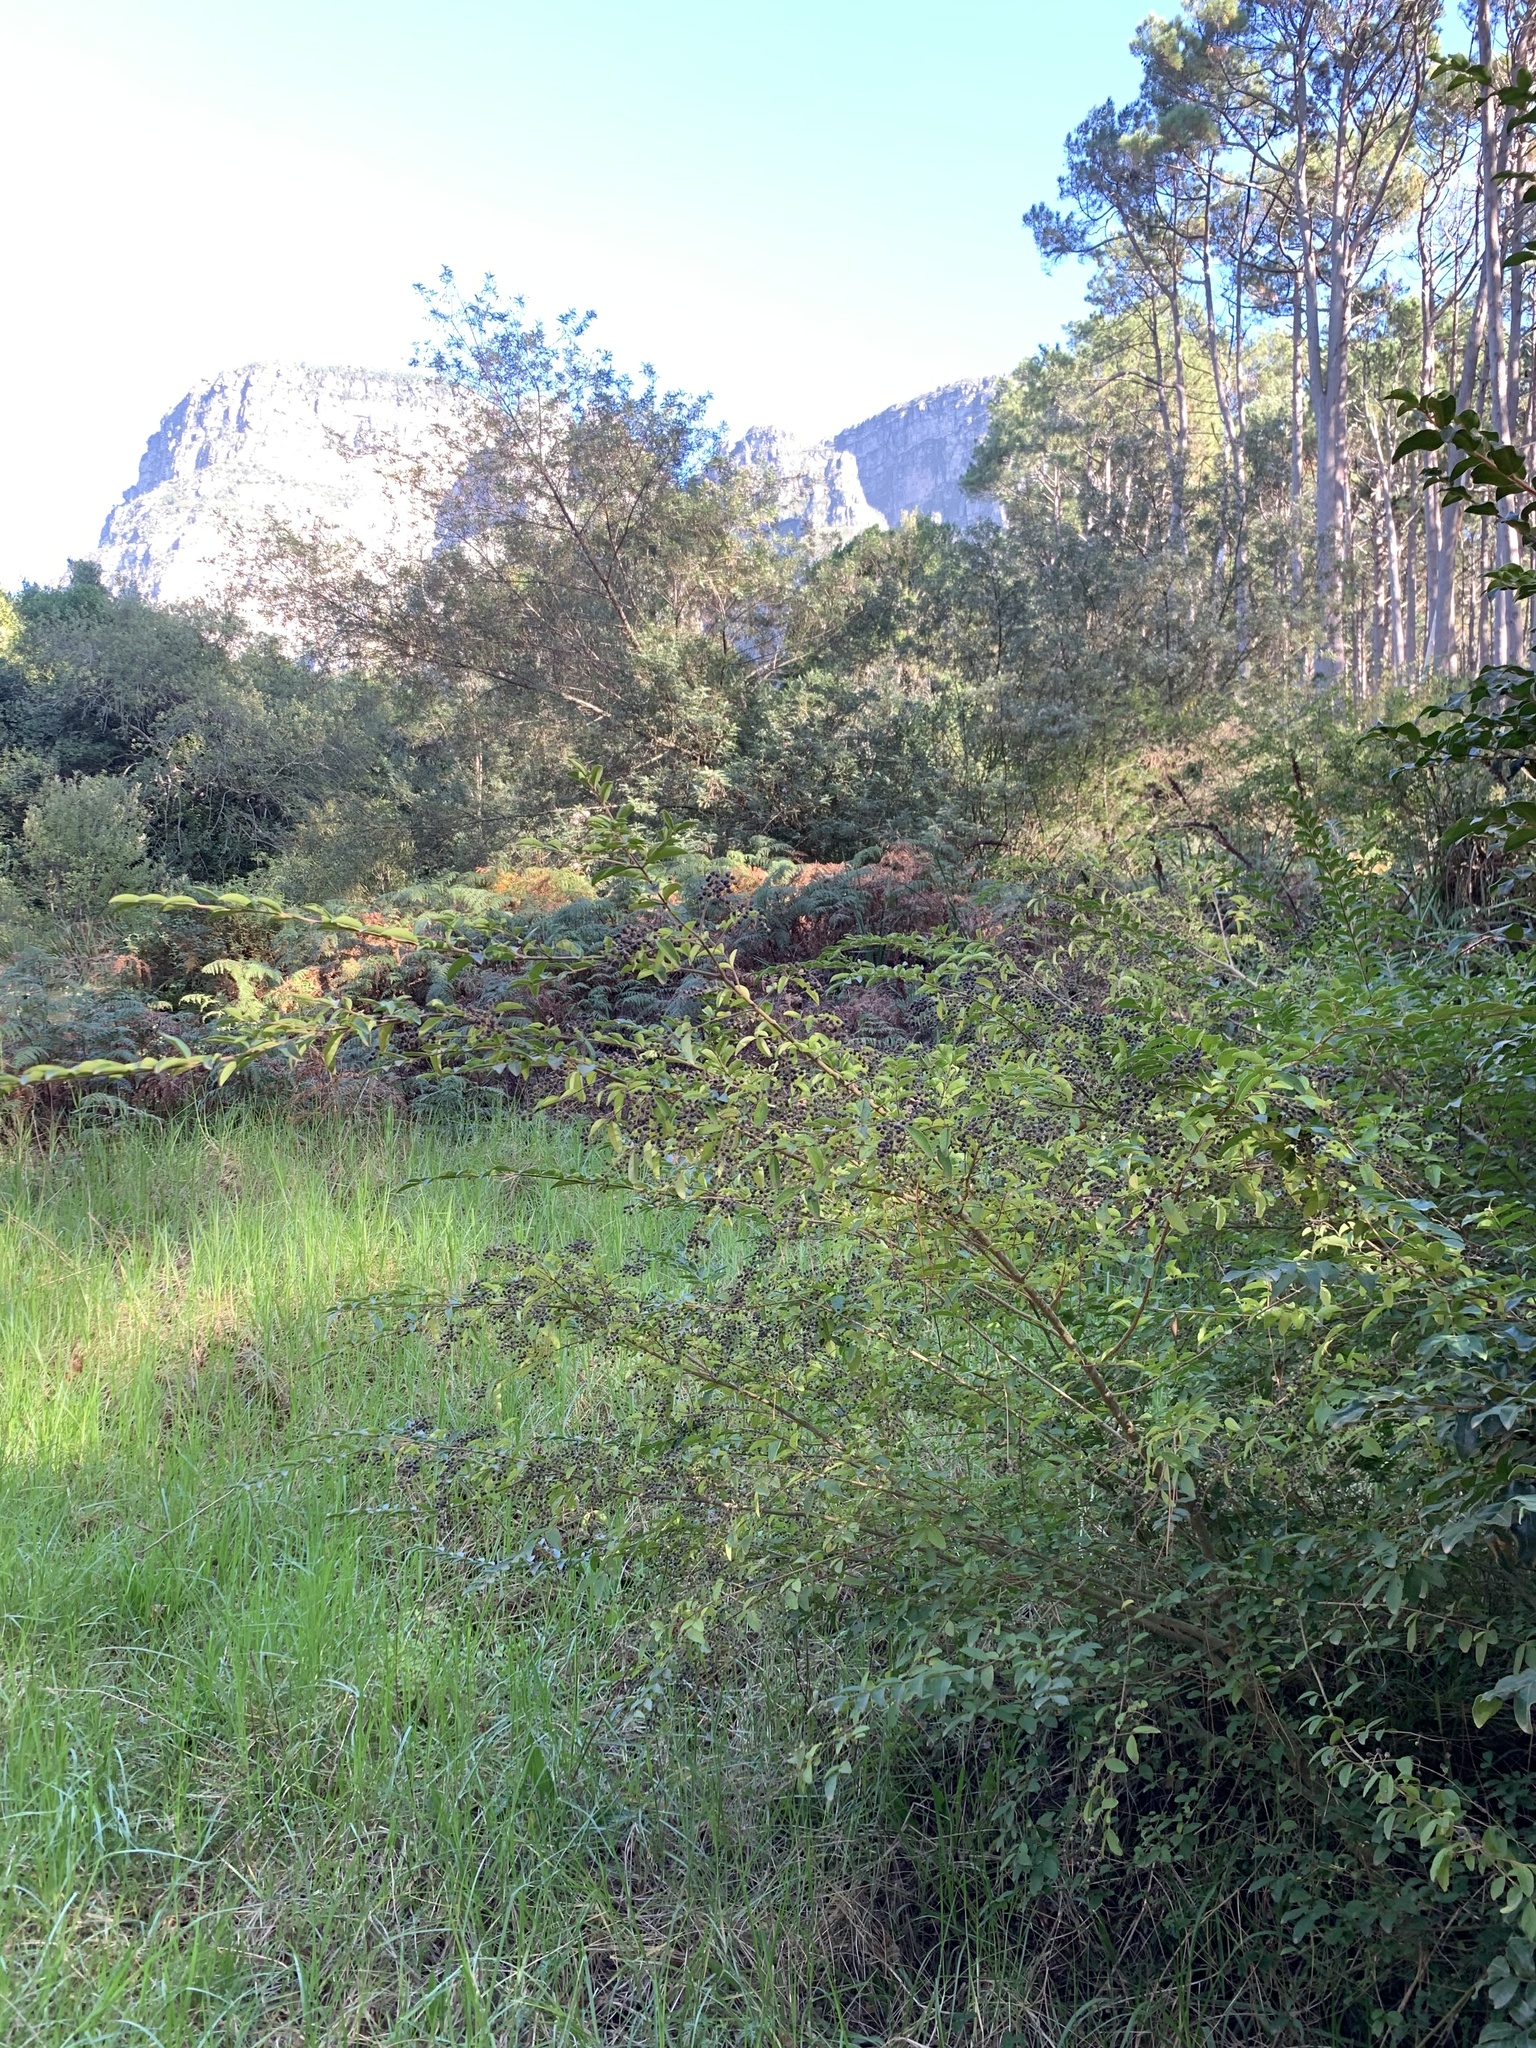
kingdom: Plantae
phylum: Tracheophyta
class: Magnoliopsida
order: Lamiales
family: Oleaceae
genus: Ligustrum
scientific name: Ligustrum sinense
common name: Chinese privet
